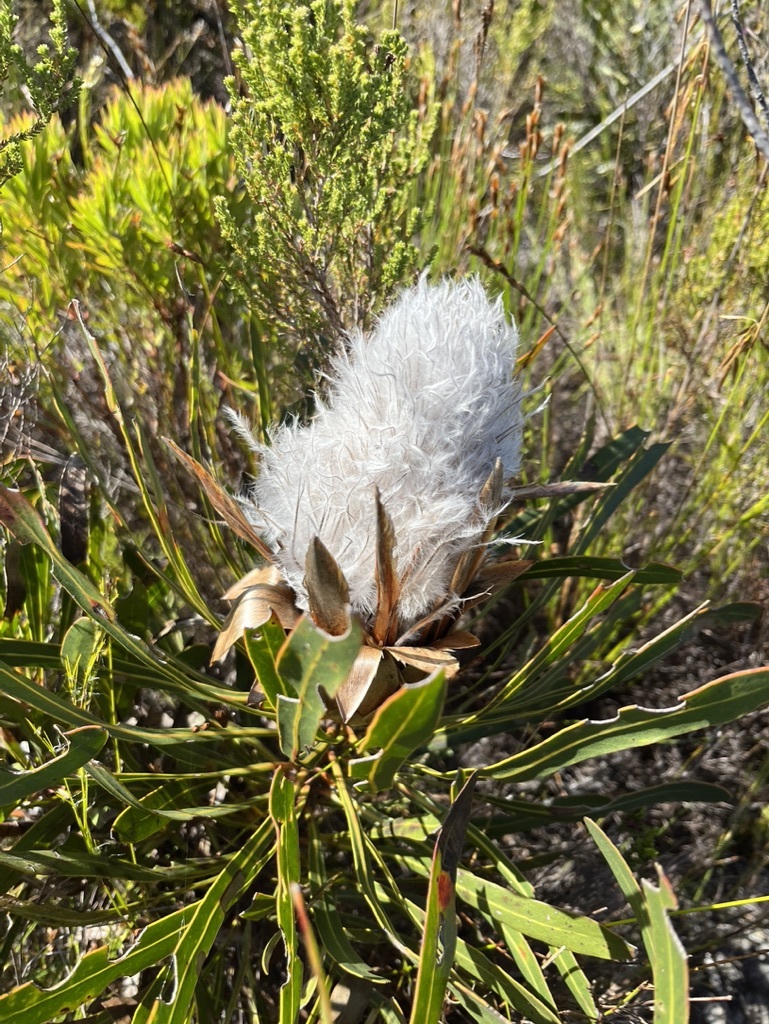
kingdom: Plantae
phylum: Tracheophyta
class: Magnoliopsida
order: Proteales
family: Proteaceae
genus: Protea
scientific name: Protea longifolia
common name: Long-leaf sugarbush
